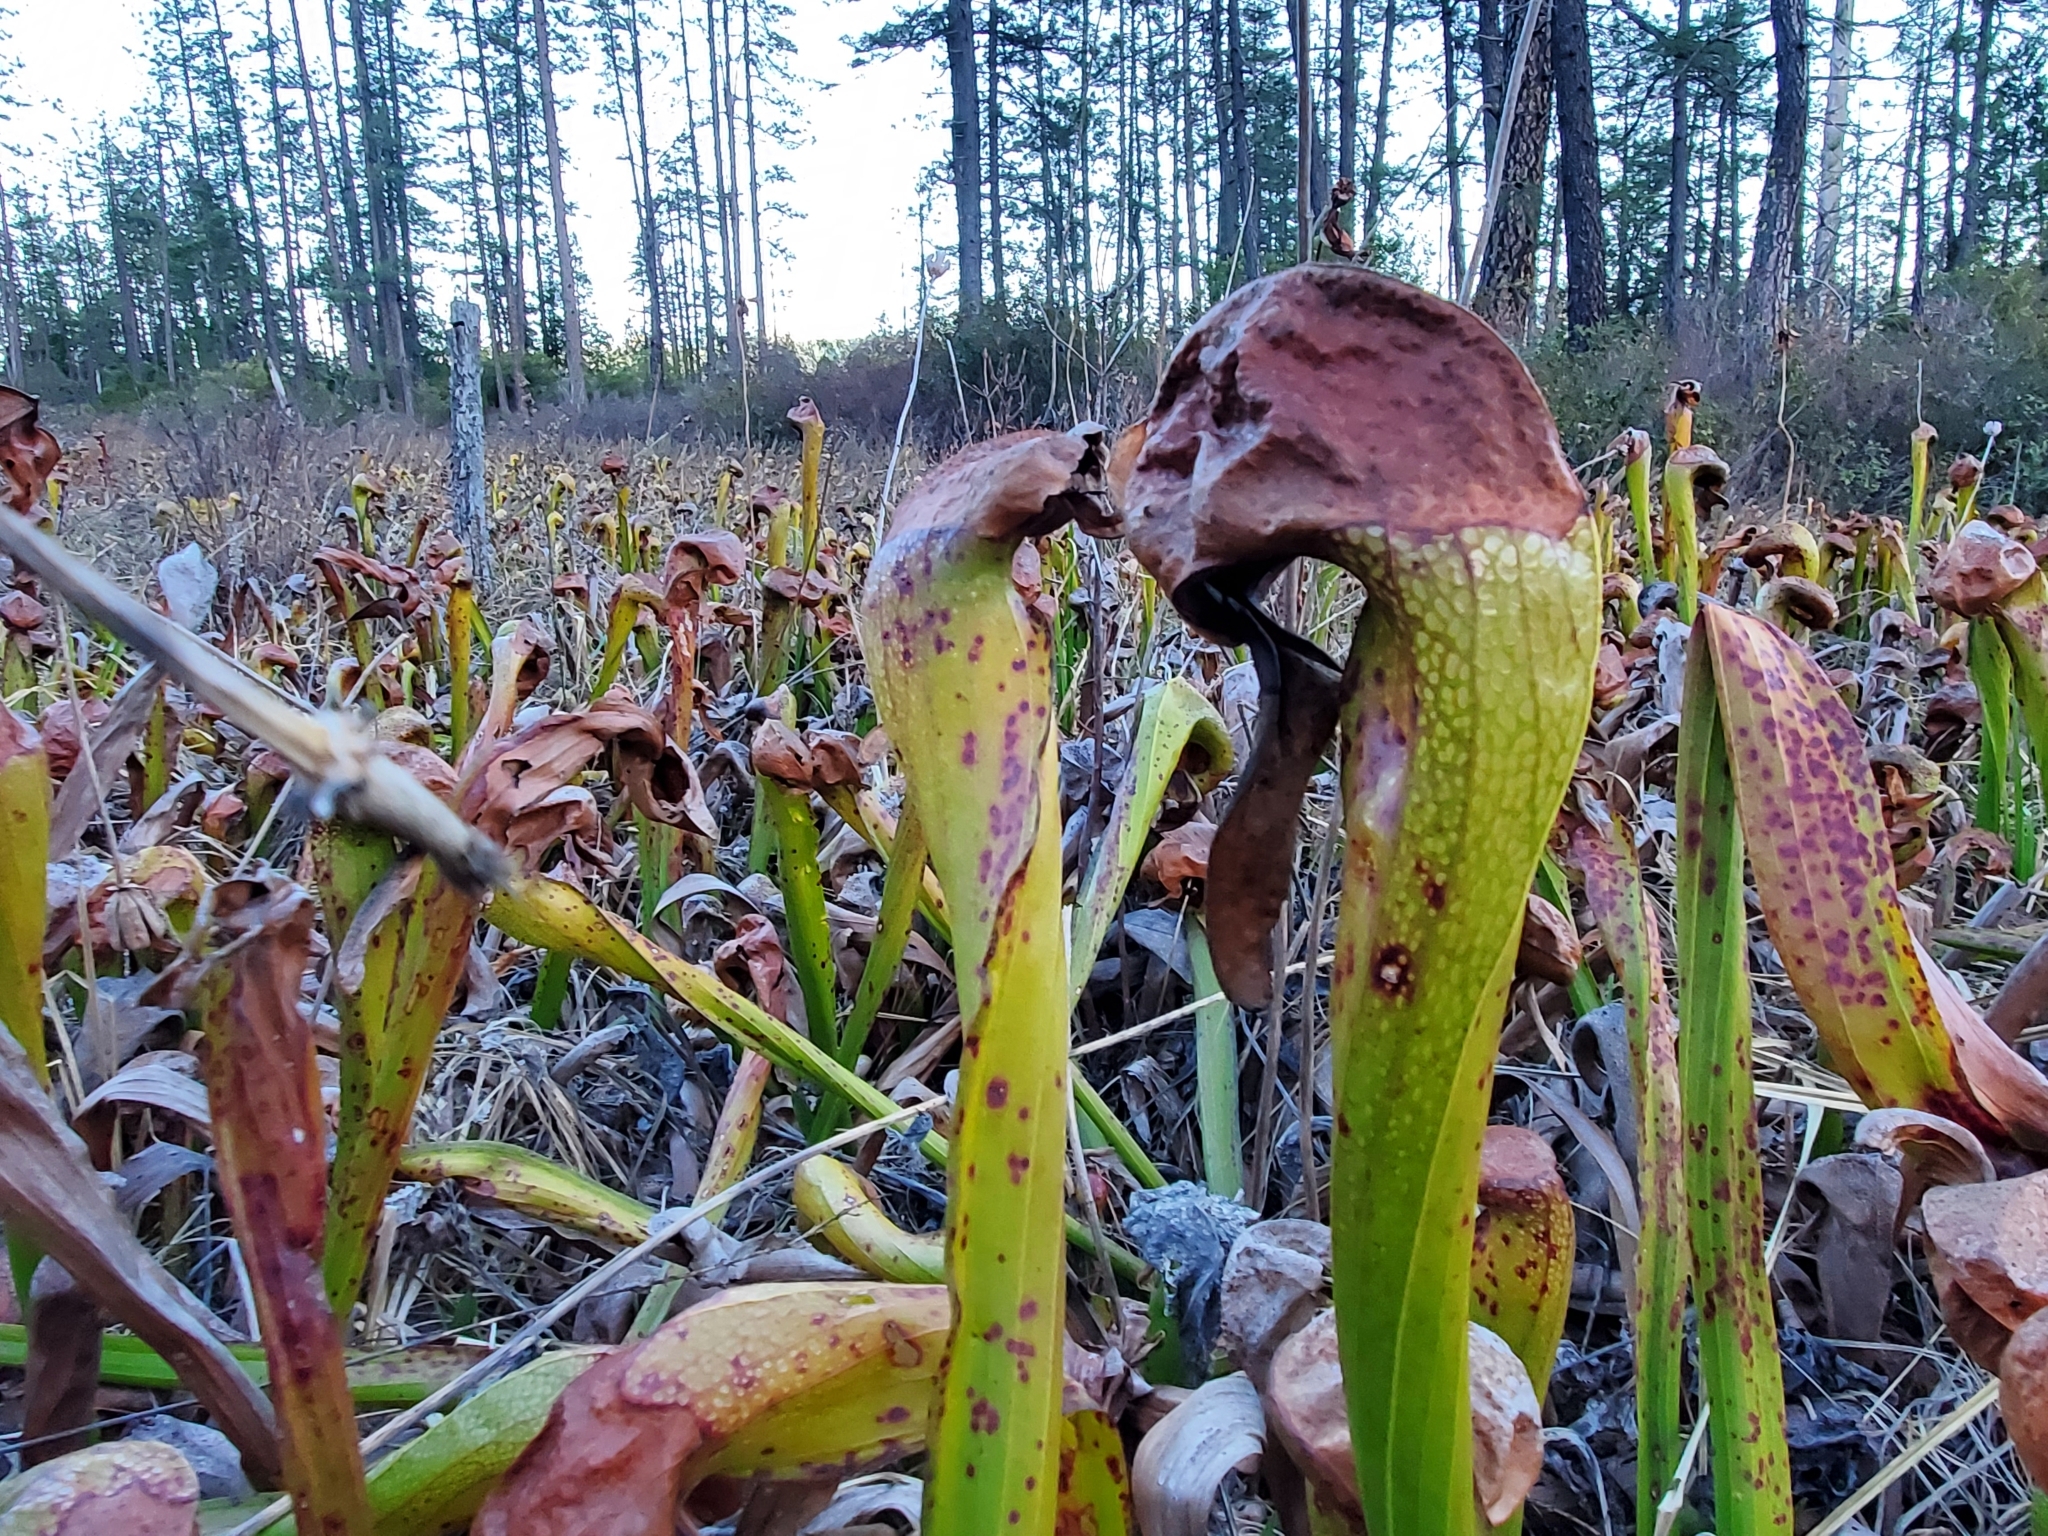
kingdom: Plantae
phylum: Tracheophyta
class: Magnoliopsida
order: Ericales
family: Sarraceniaceae
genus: Darlingtonia
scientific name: Darlingtonia californica
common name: California pitcher plant
